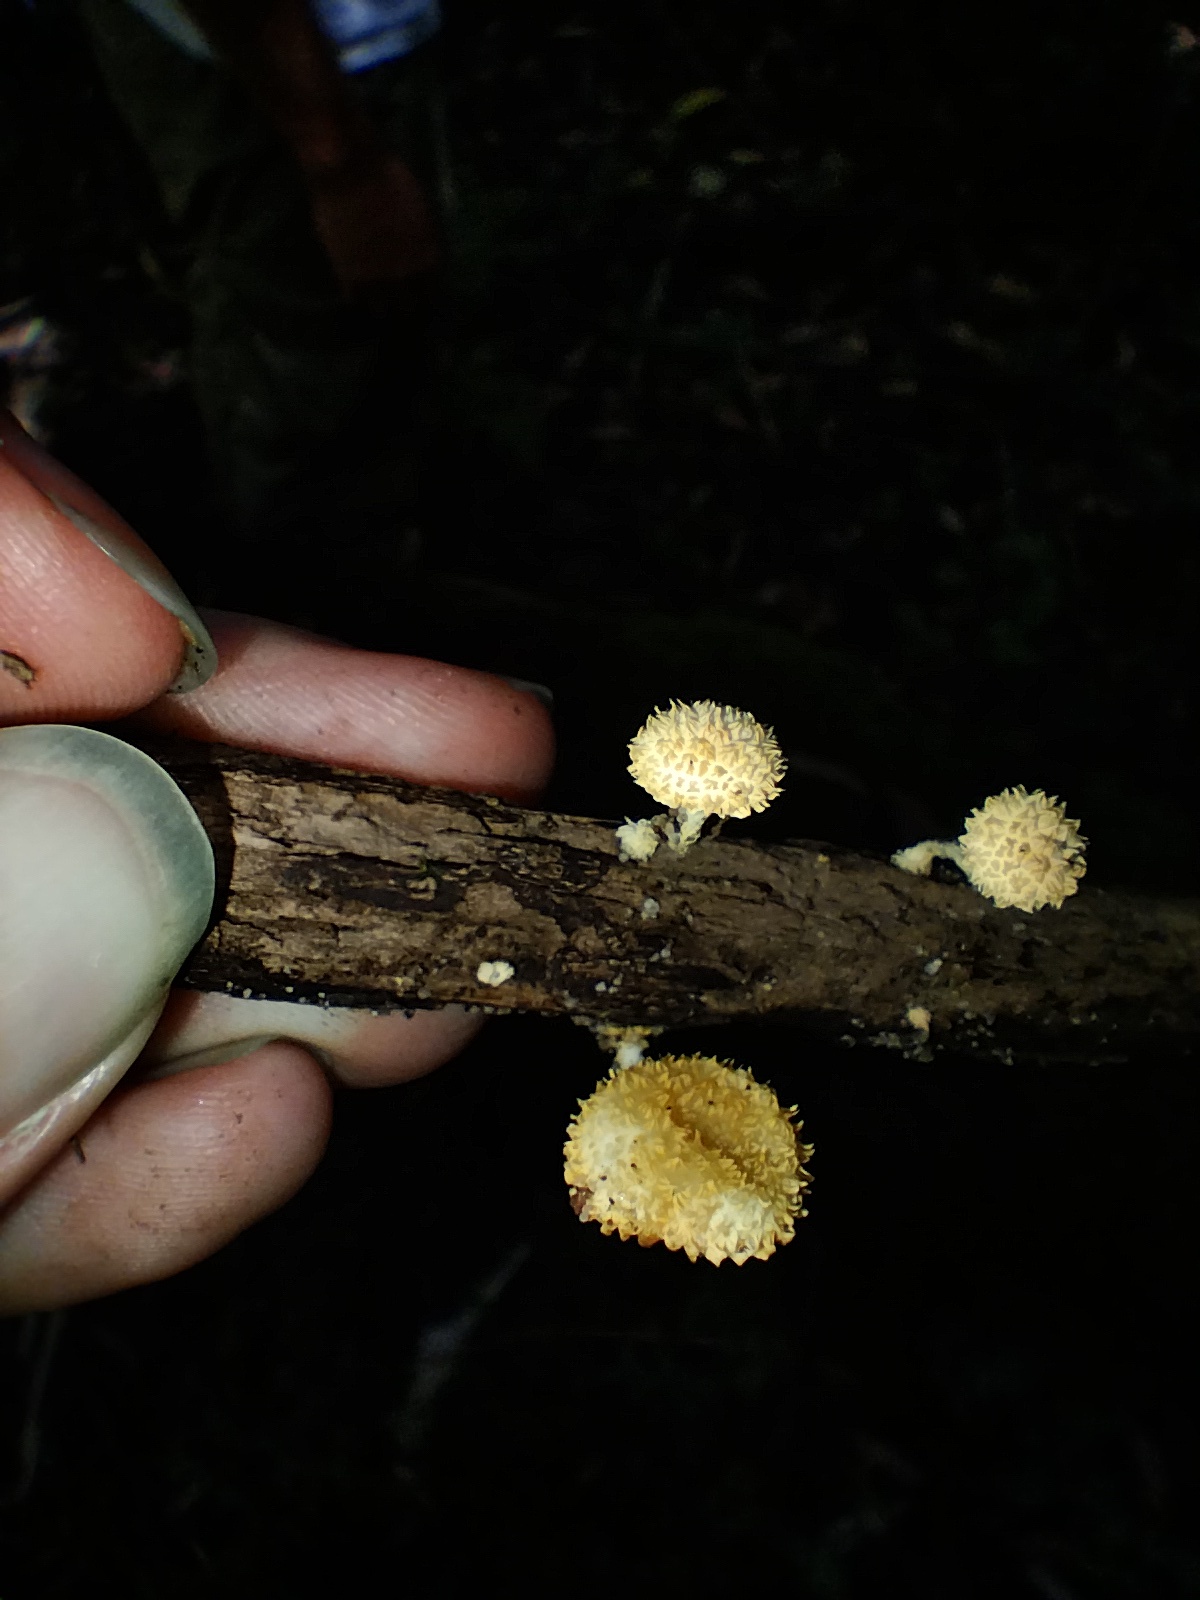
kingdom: Fungi
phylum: Basidiomycota
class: Agaricomycetes
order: Agaricales
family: Physalacriaceae
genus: Cyptotrama
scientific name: Cyptotrama asprata
